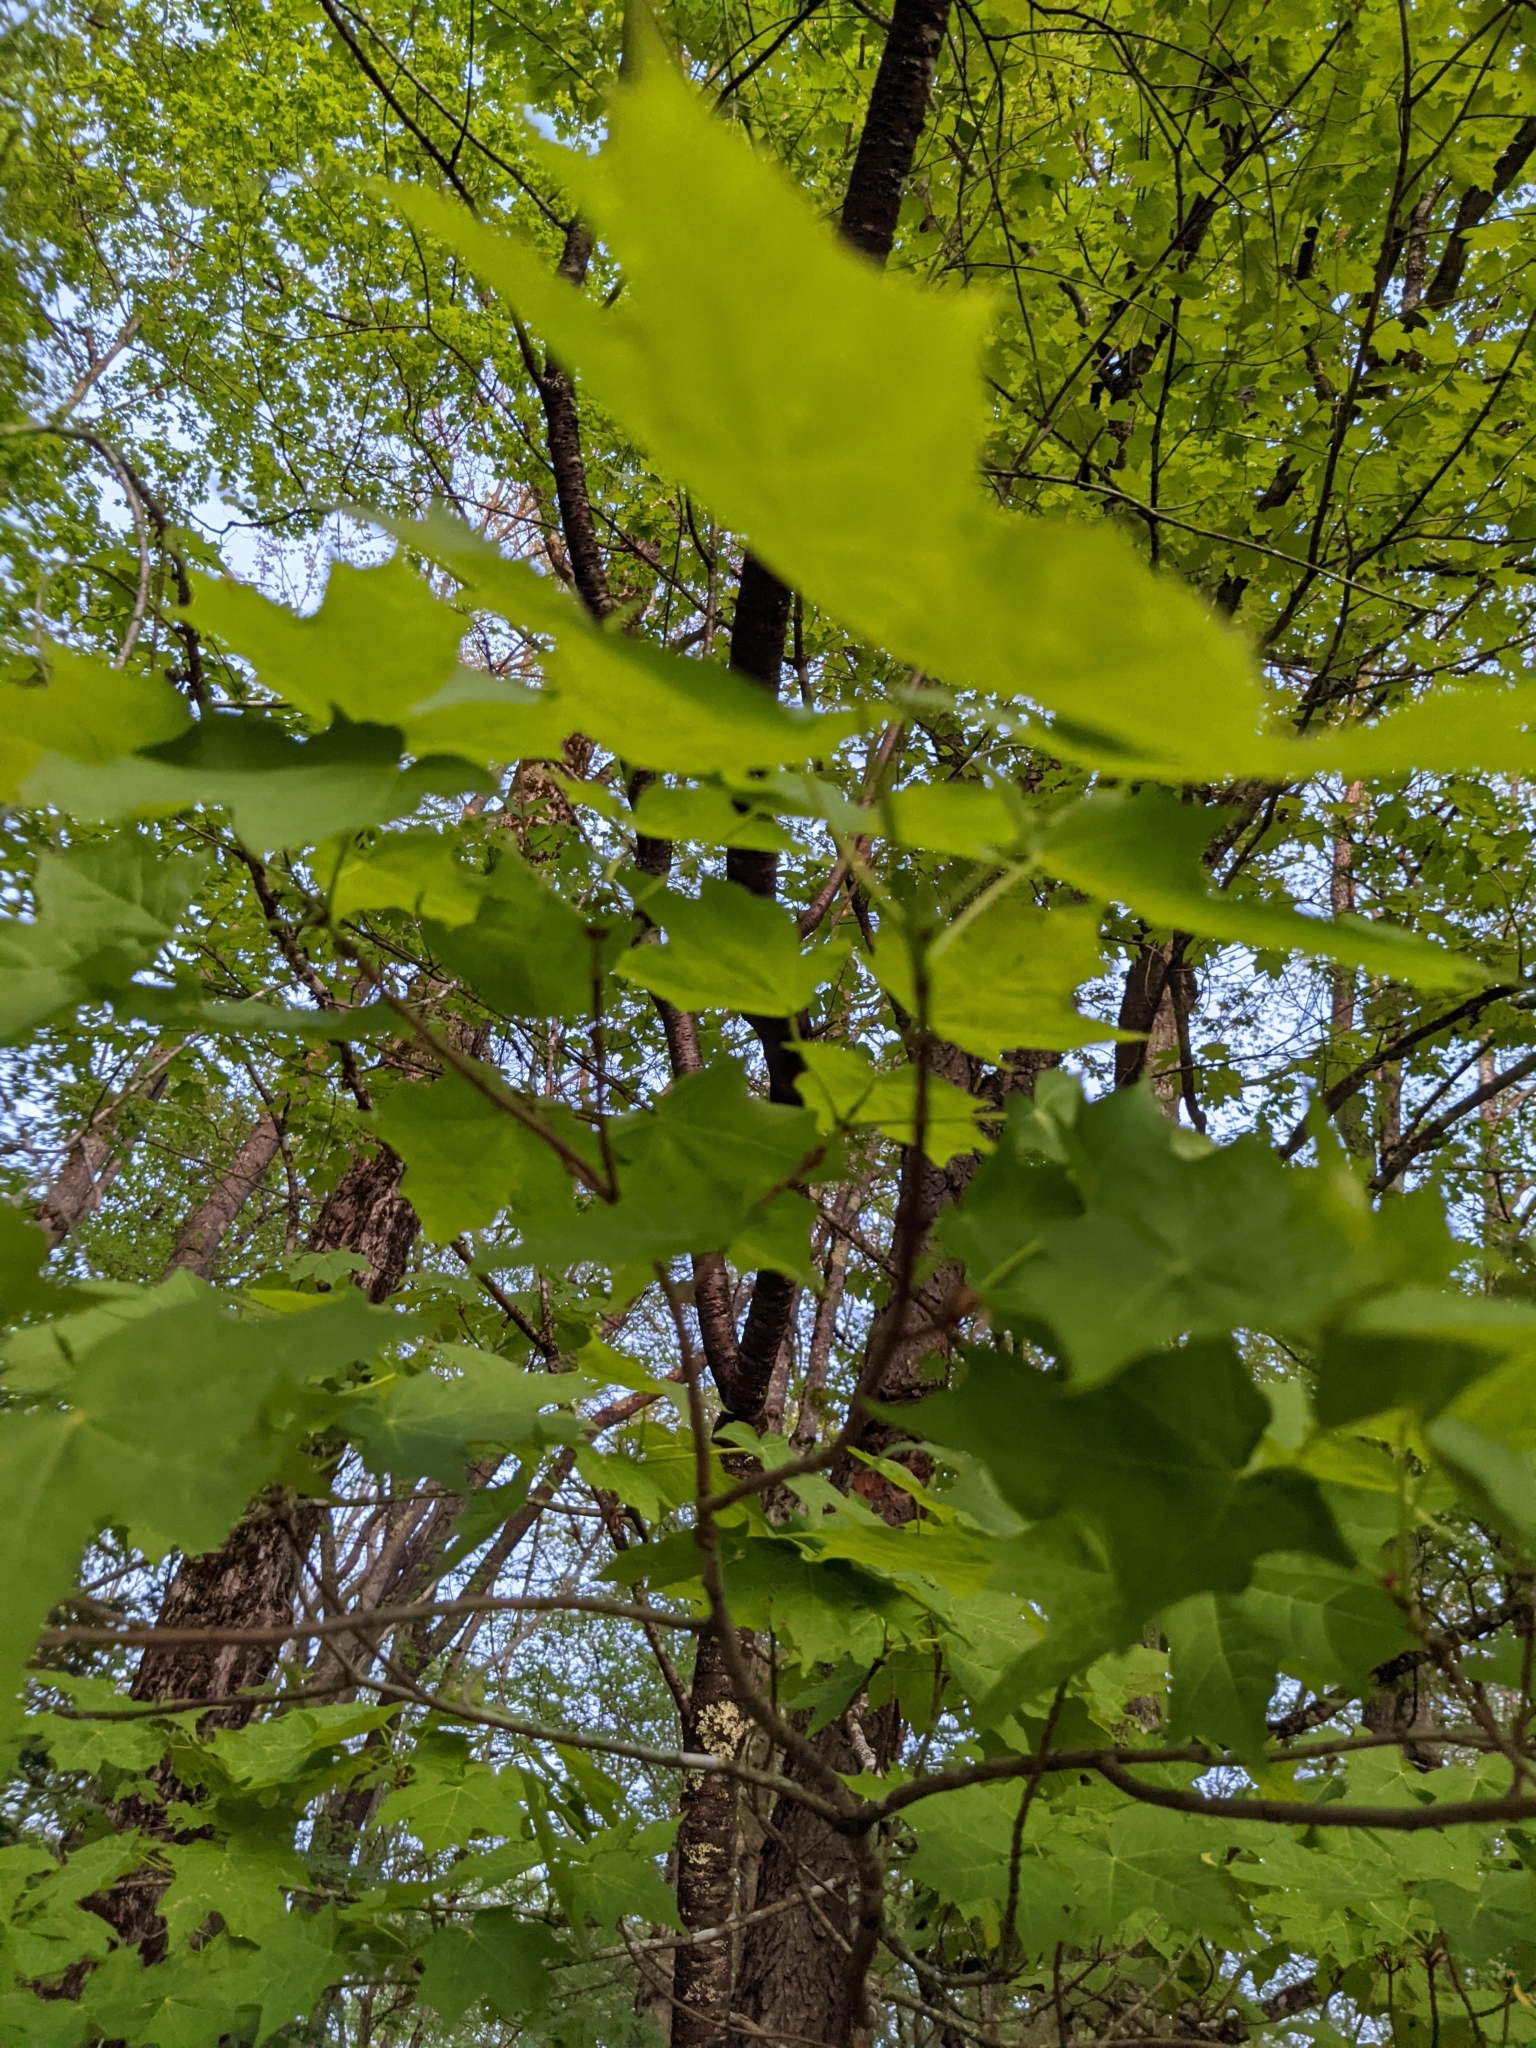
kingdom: Plantae
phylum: Tracheophyta
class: Magnoliopsida
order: Sapindales
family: Sapindaceae
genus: Acer
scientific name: Acer saccharum
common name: Sugar maple
